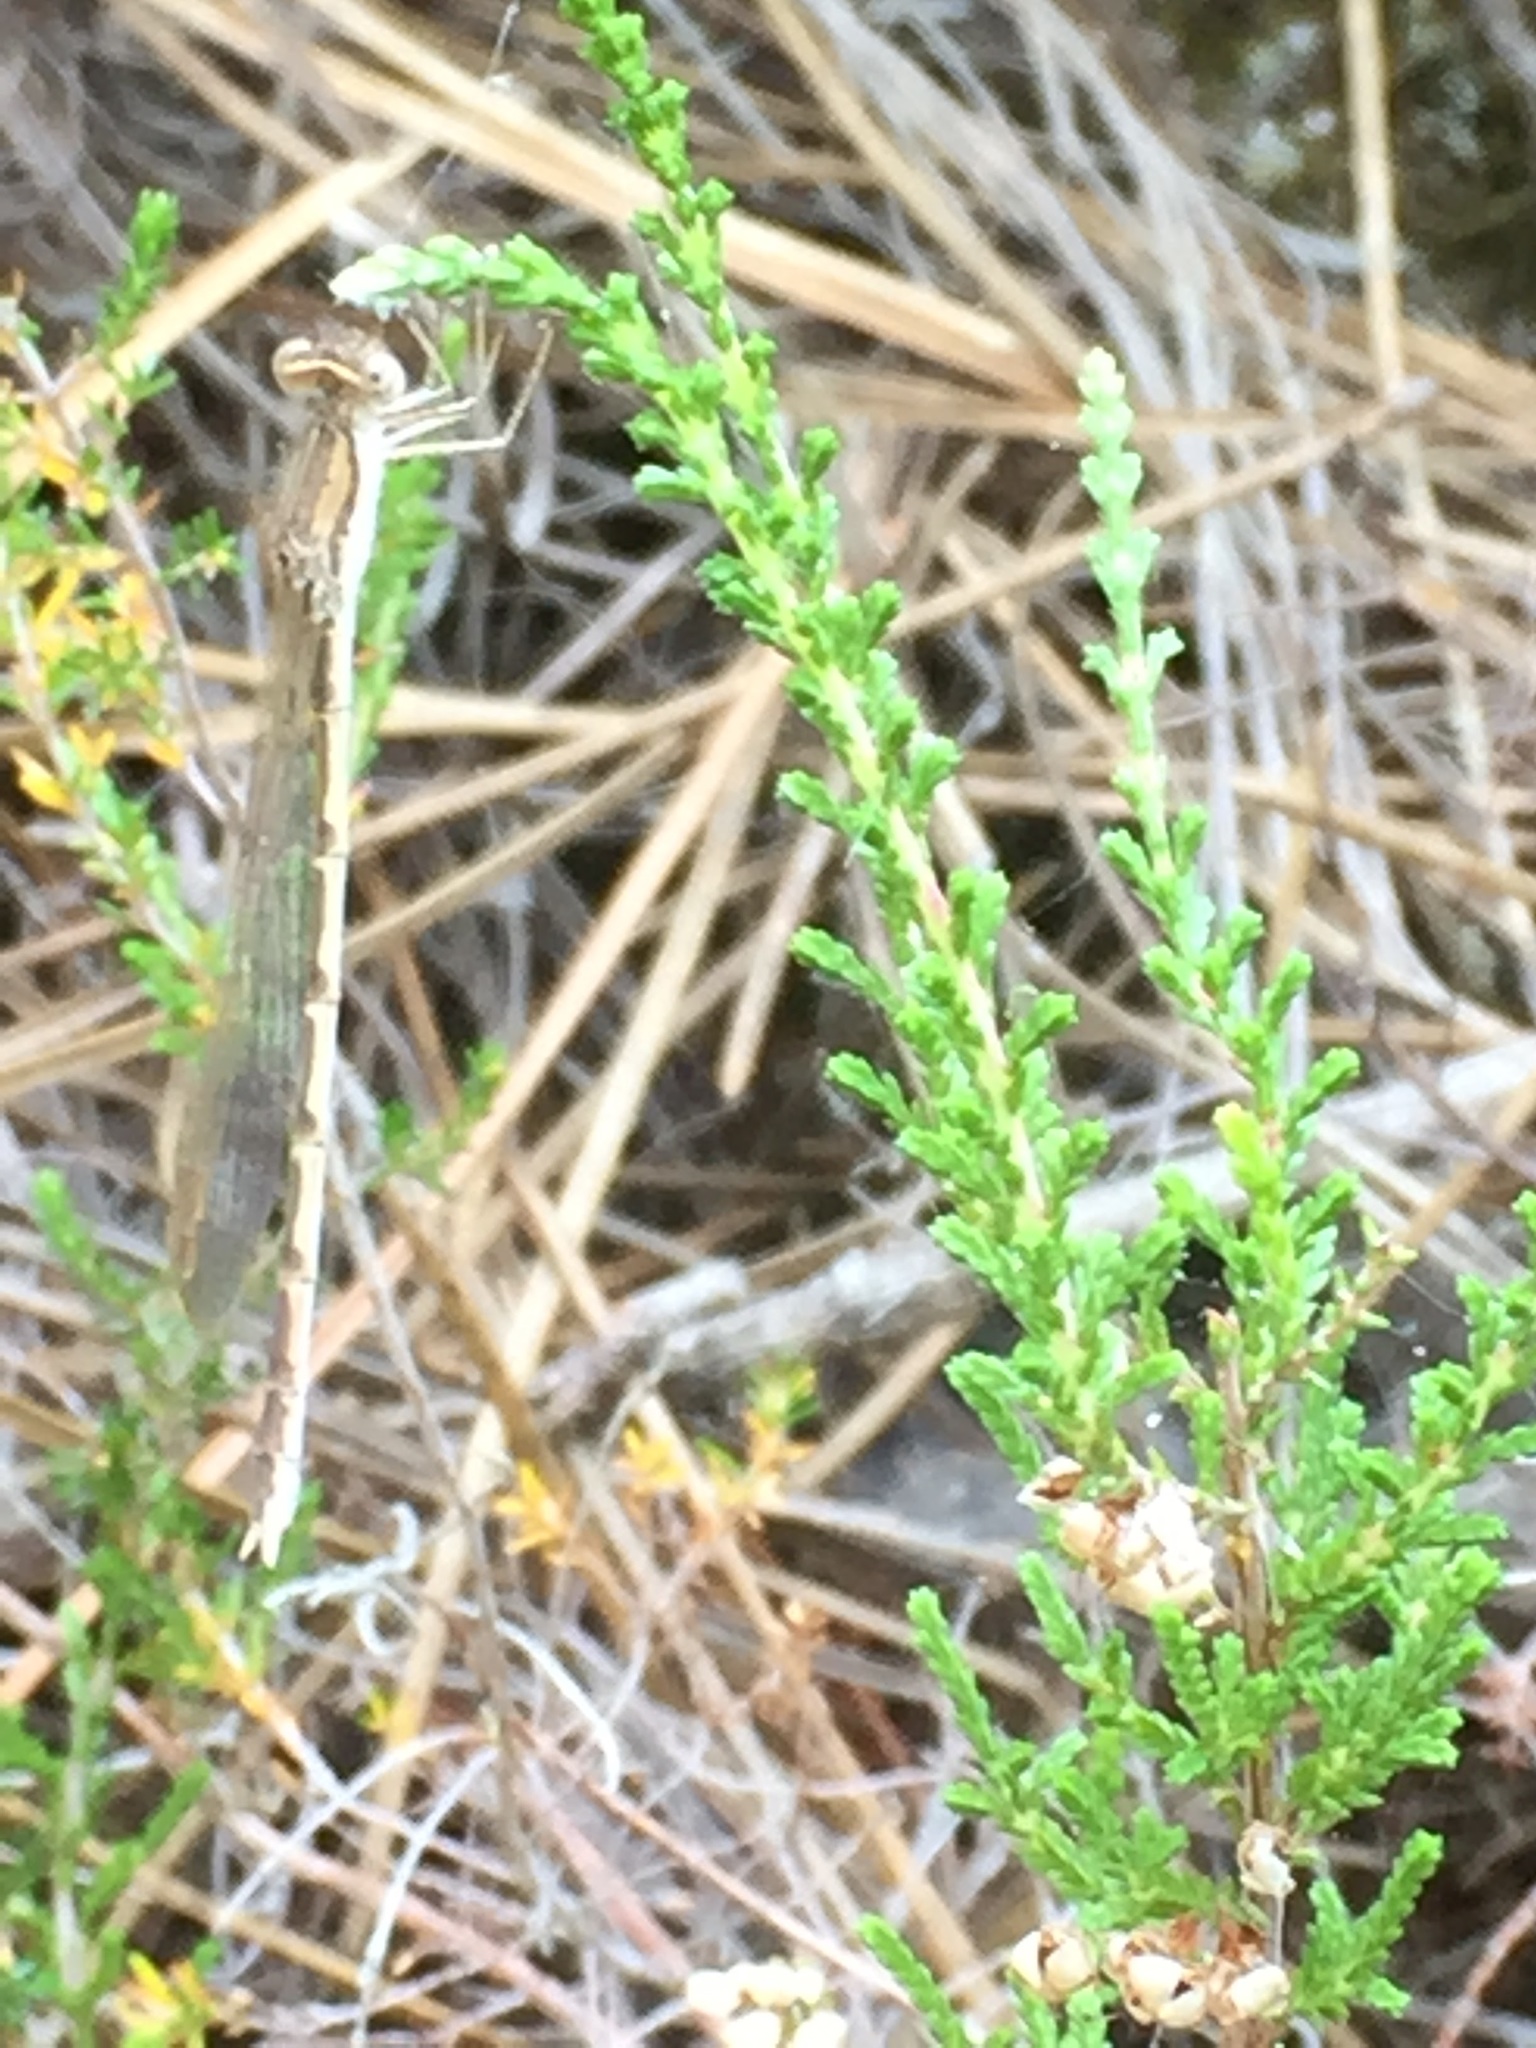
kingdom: Animalia
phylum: Arthropoda
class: Insecta
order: Odonata
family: Lestidae
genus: Sympecma
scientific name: Sympecma fusca
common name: Common winter damsel
